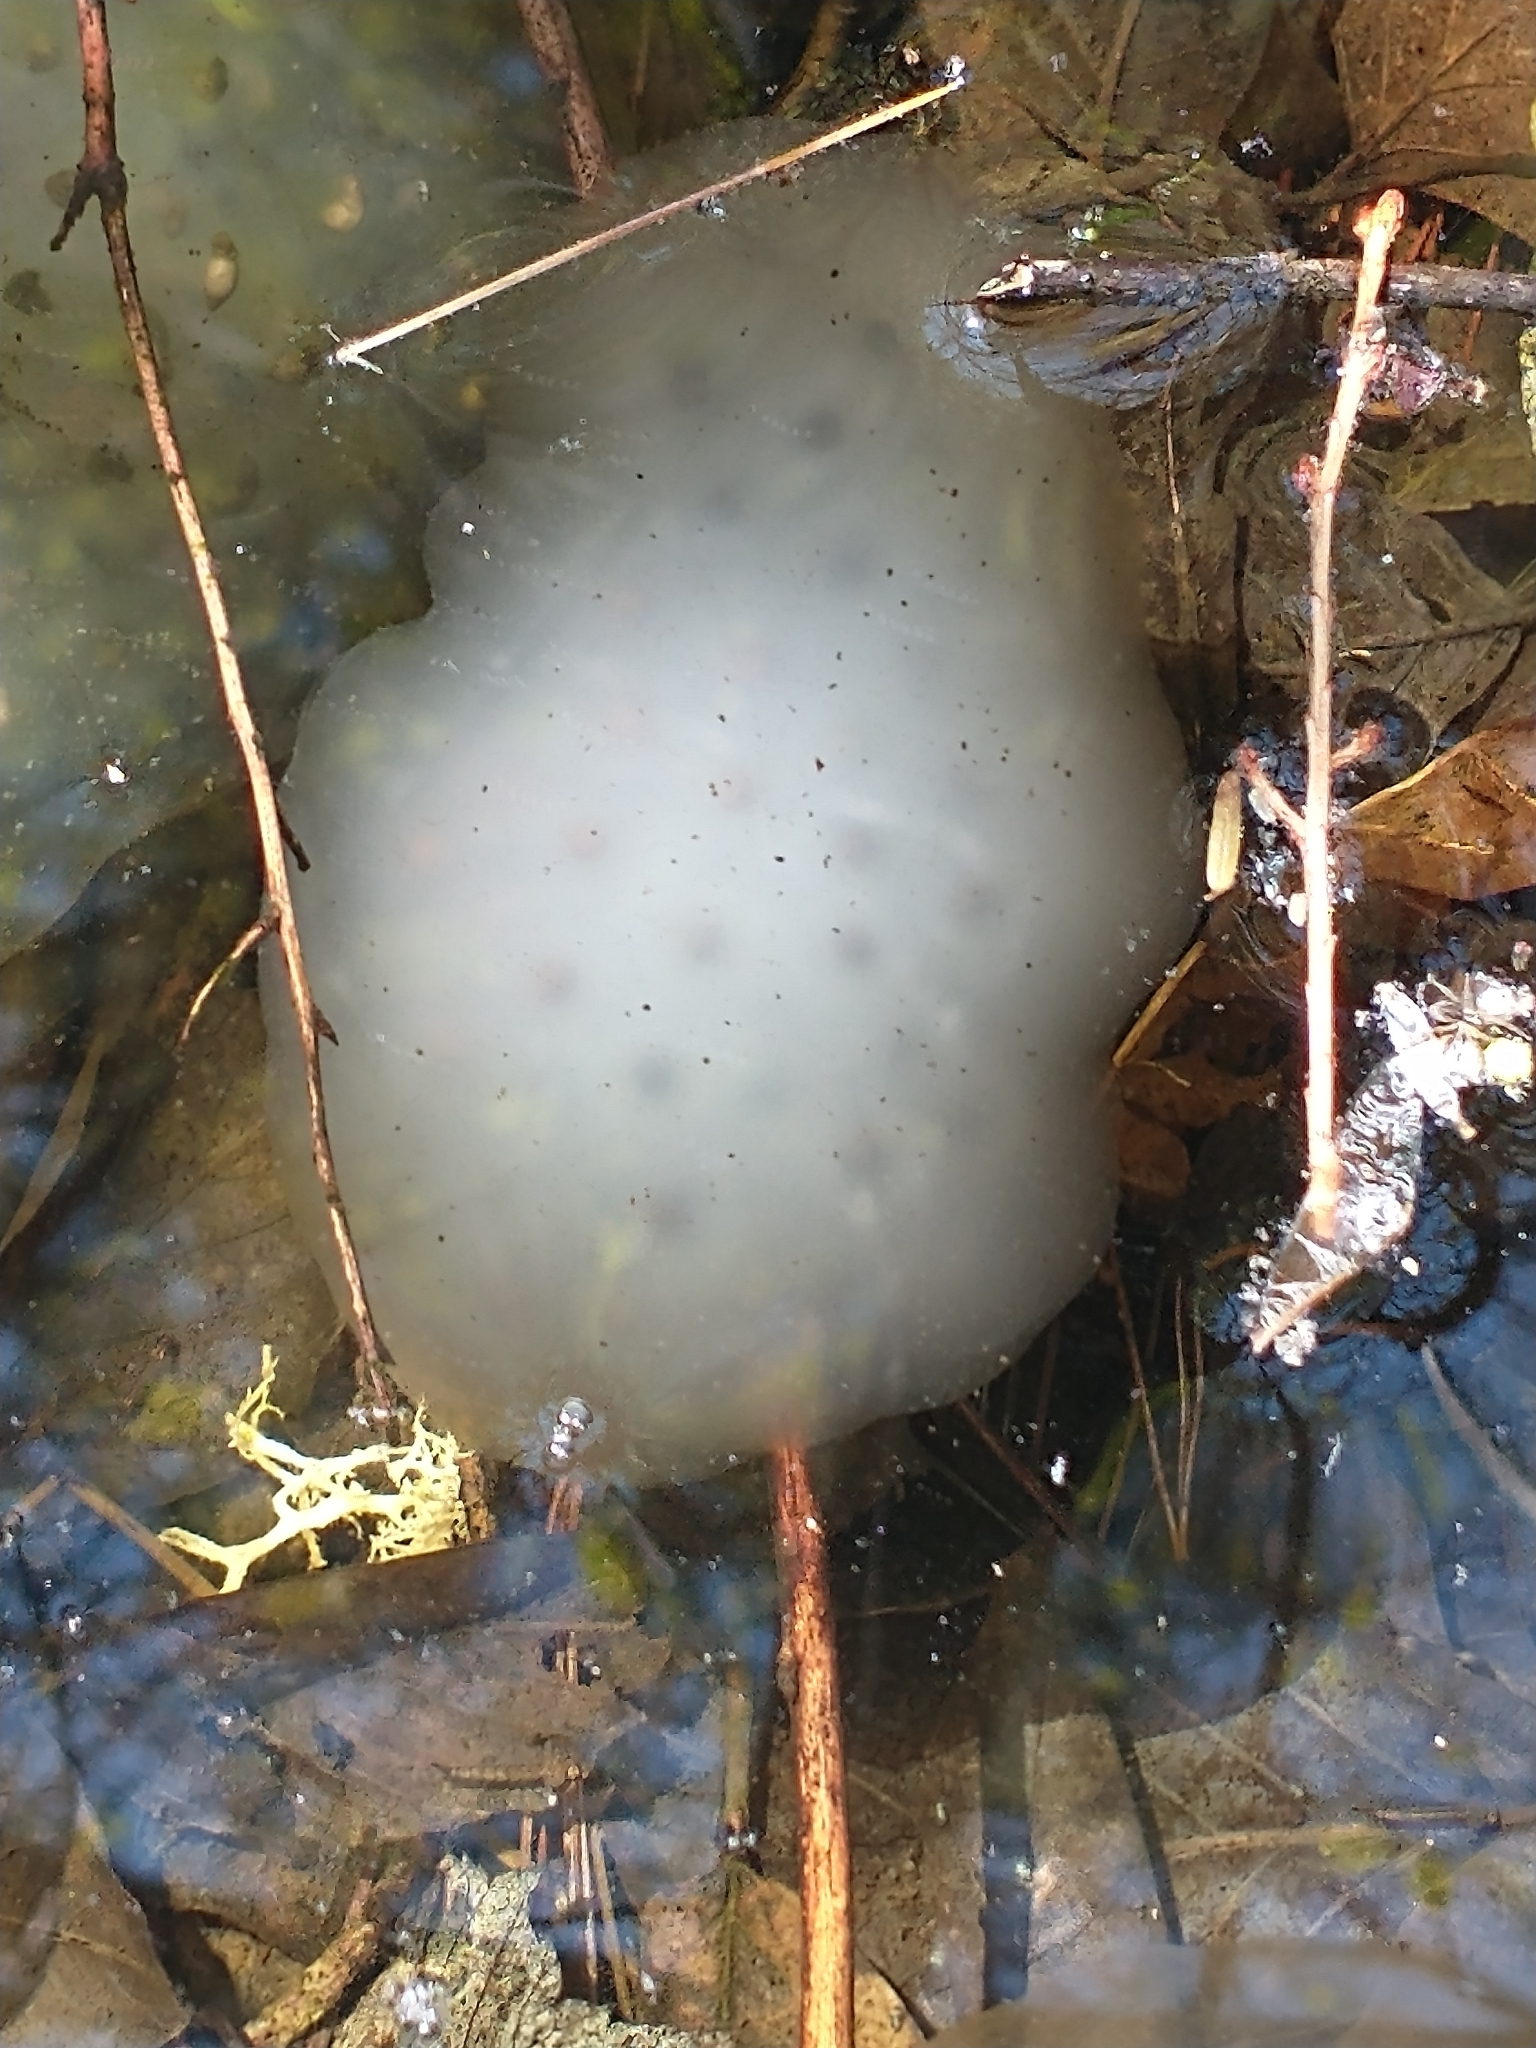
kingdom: Animalia
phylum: Chordata
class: Amphibia
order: Caudata
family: Ambystomatidae
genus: Ambystoma
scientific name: Ambystoma maculatum
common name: Spotted salamander
